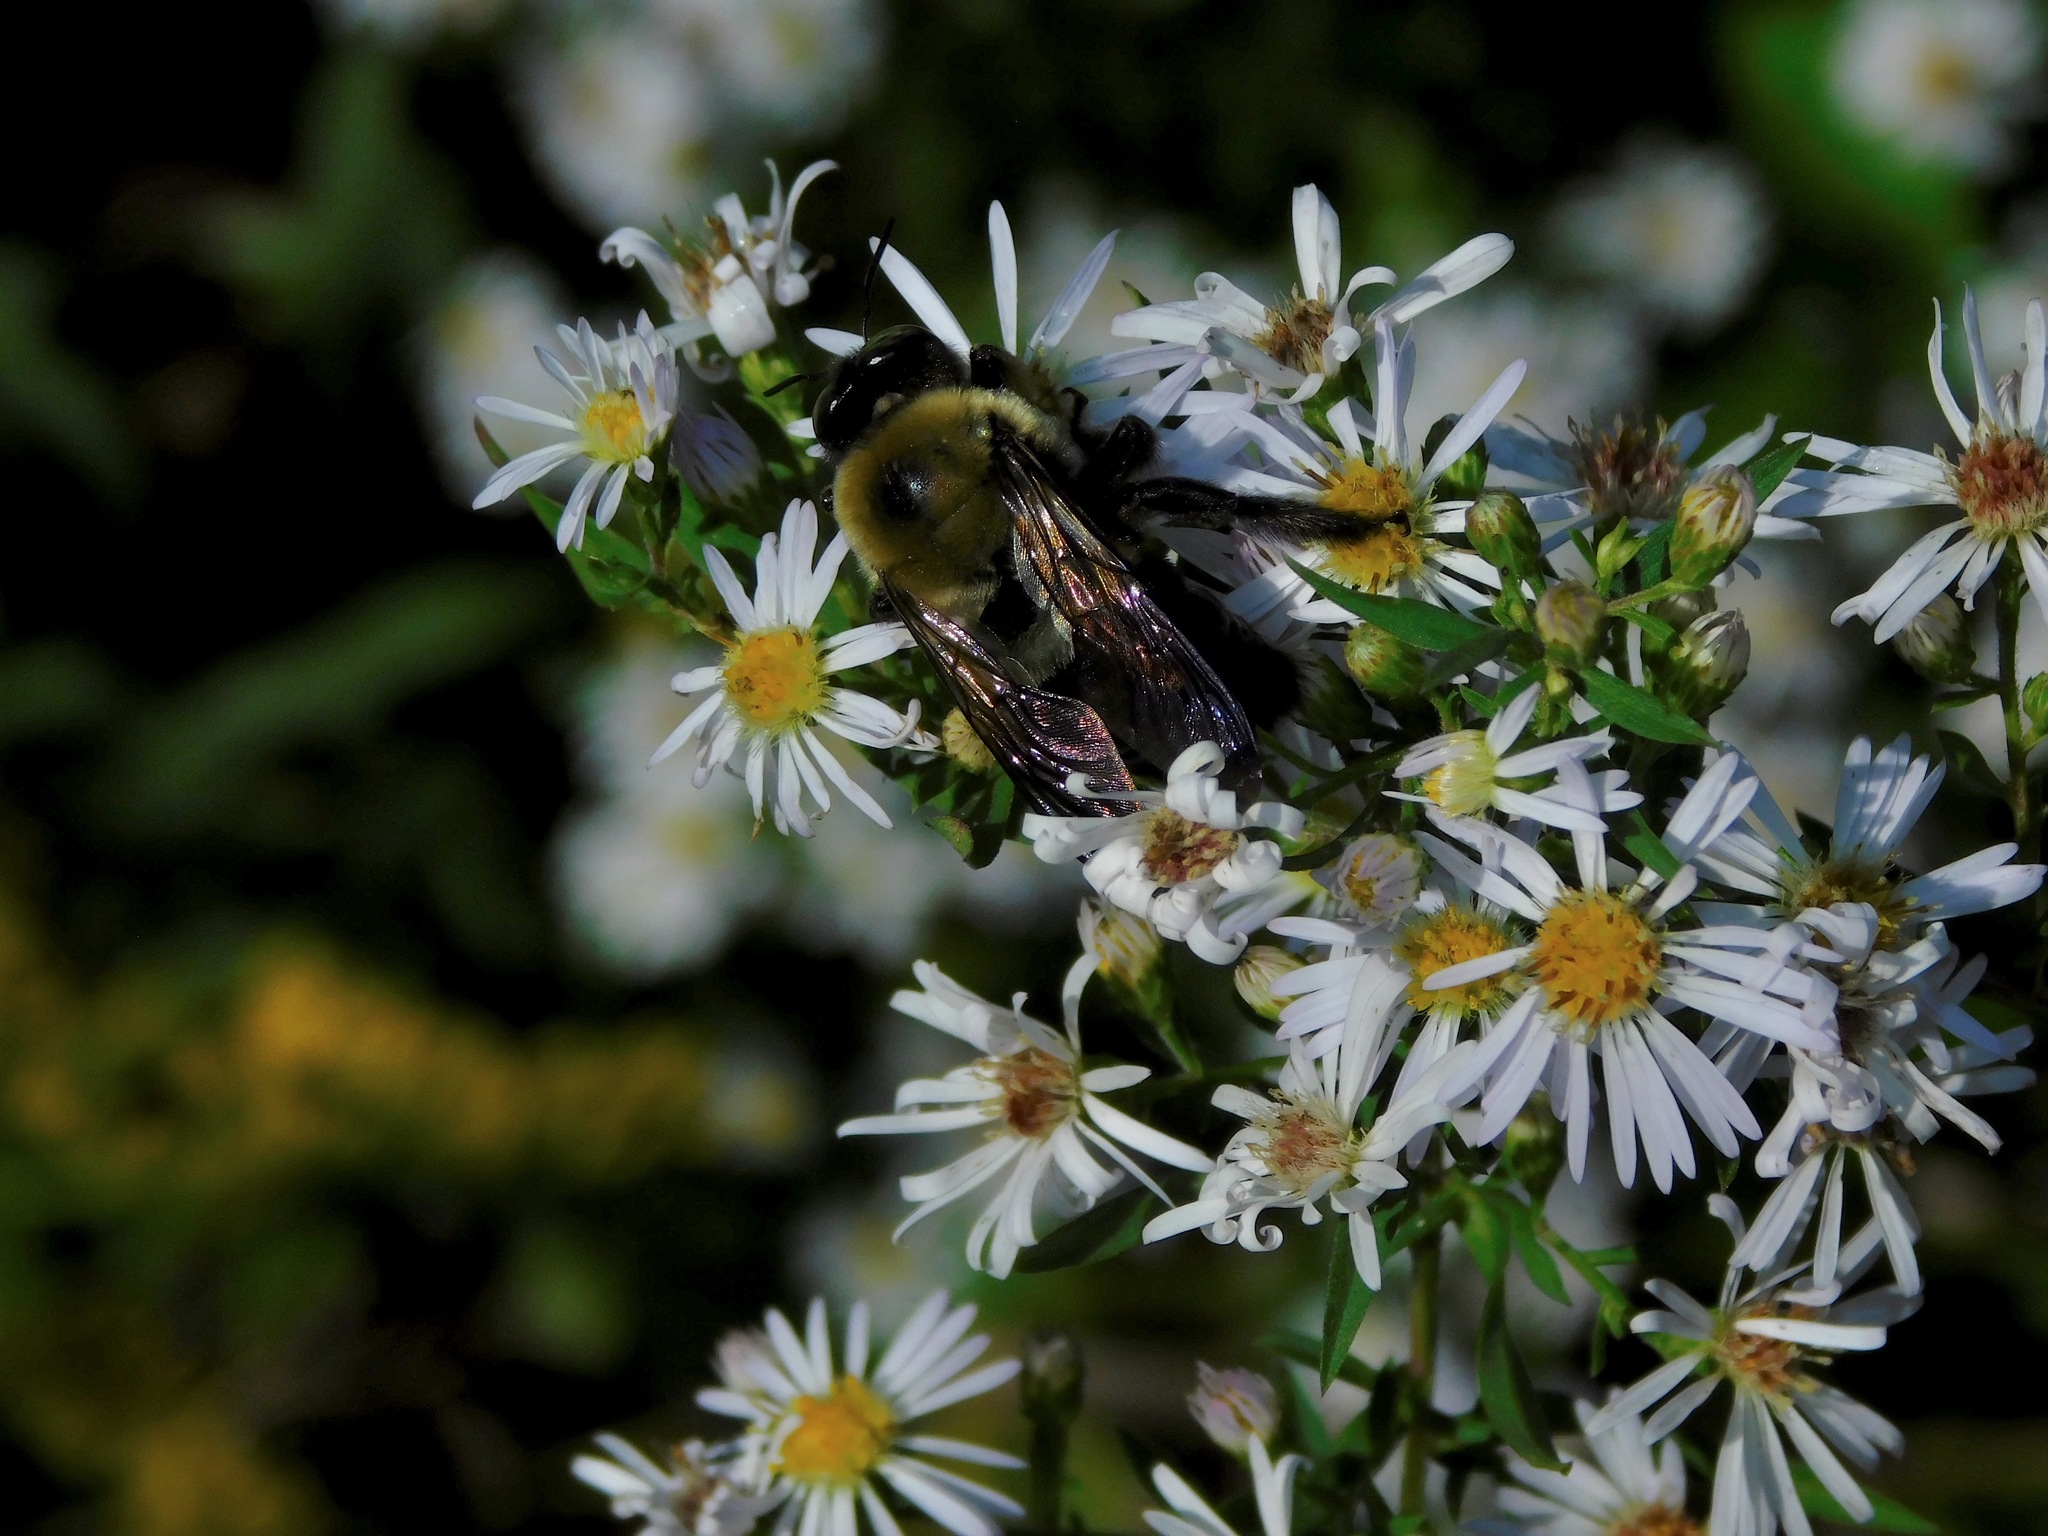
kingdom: Animalia
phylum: Arthropoda
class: Insecta
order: Hymenoptera
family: Apidae
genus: Xylocopa
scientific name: Xylocopa virginica
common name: Carpenter bee
